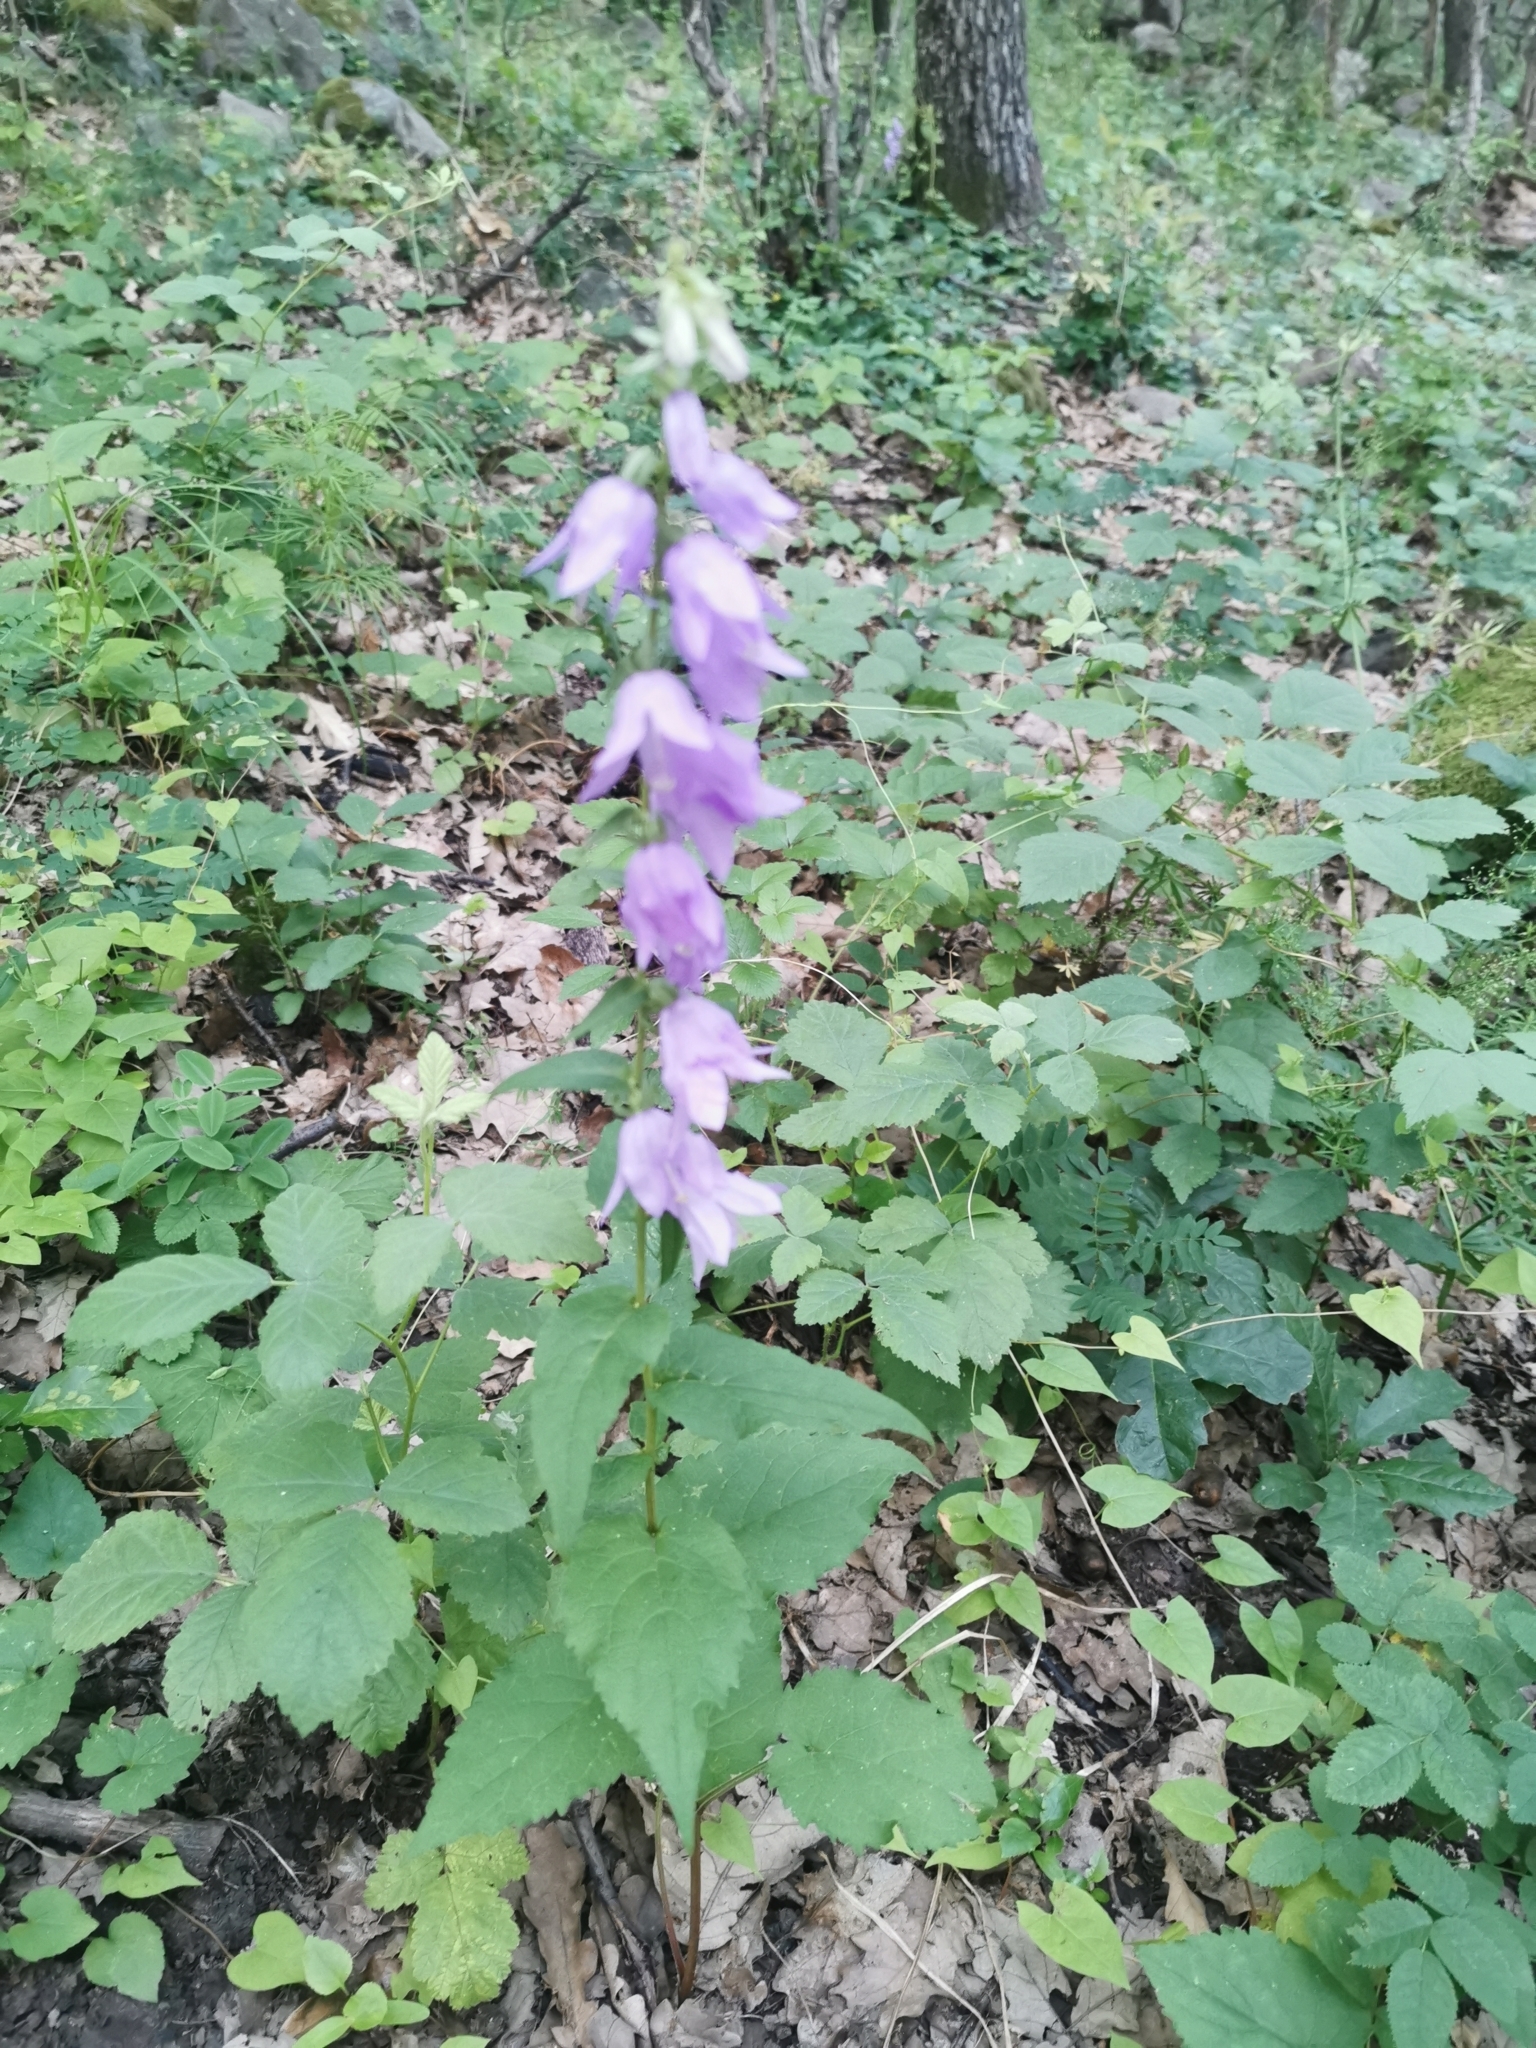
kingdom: Plantae
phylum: Tracheophyta
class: Magnoliopsida
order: Asterales
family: Campanulaceae
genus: Campanula
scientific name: Campanula rapunculoides
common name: Creeping bellflower
